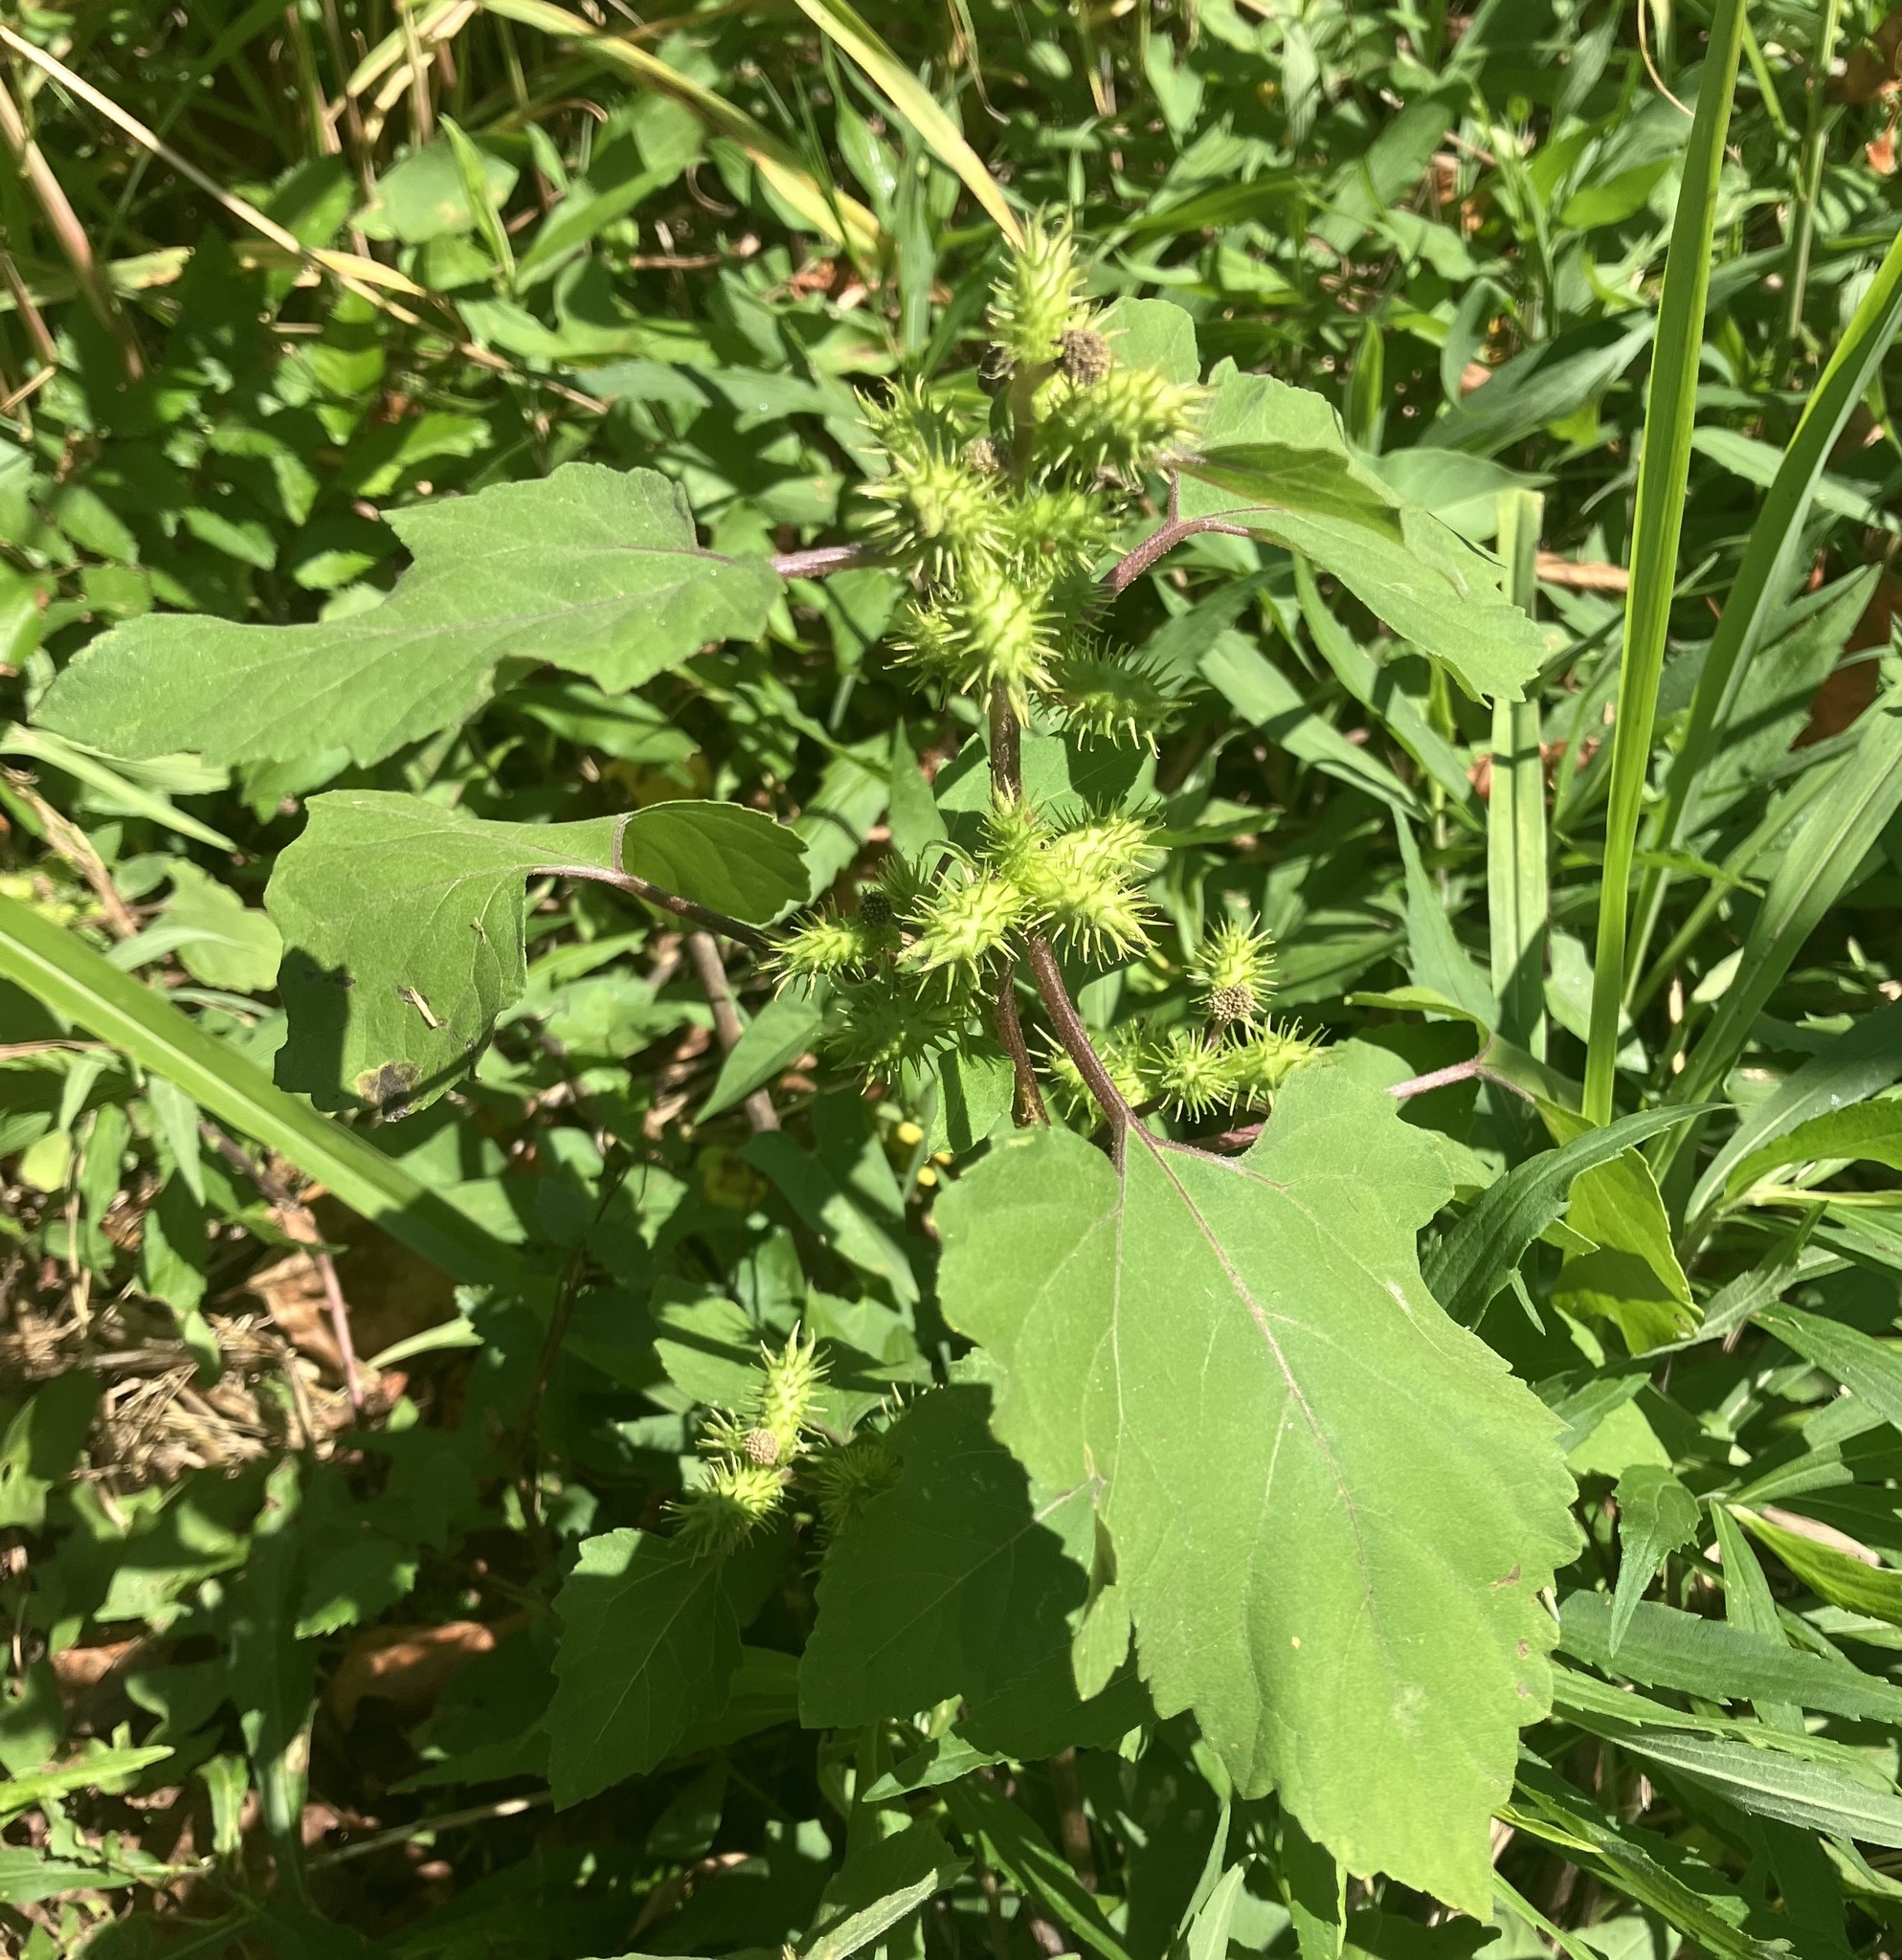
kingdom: Plantae
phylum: Tracheophyta
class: Magnoliopsida
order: Asterales
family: Asteraceae
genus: Xanthium
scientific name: Xanthium strumarium
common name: Rough cocklebur
